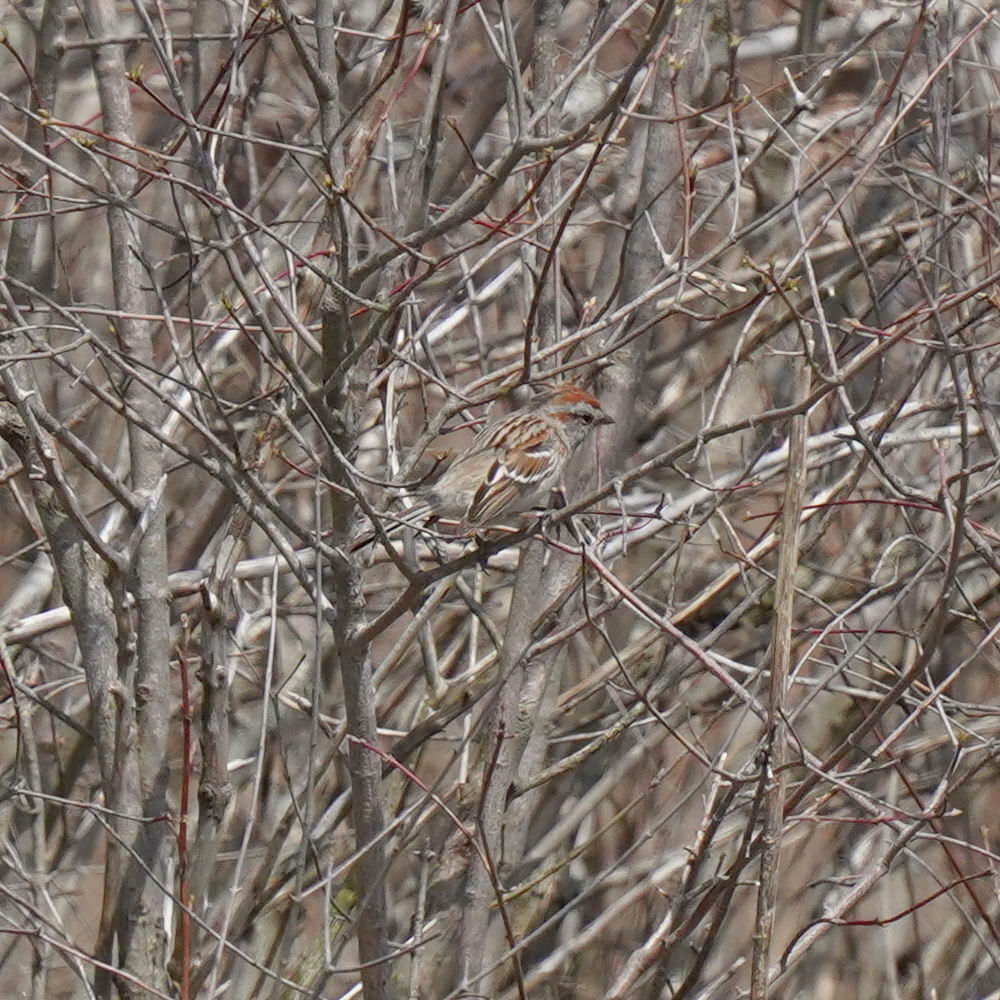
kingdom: Animalia
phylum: Chordata
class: Aves
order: Passeriformes
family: Passerellidae
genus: Spizella
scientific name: Spizella pusilla
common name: Field sparrow
